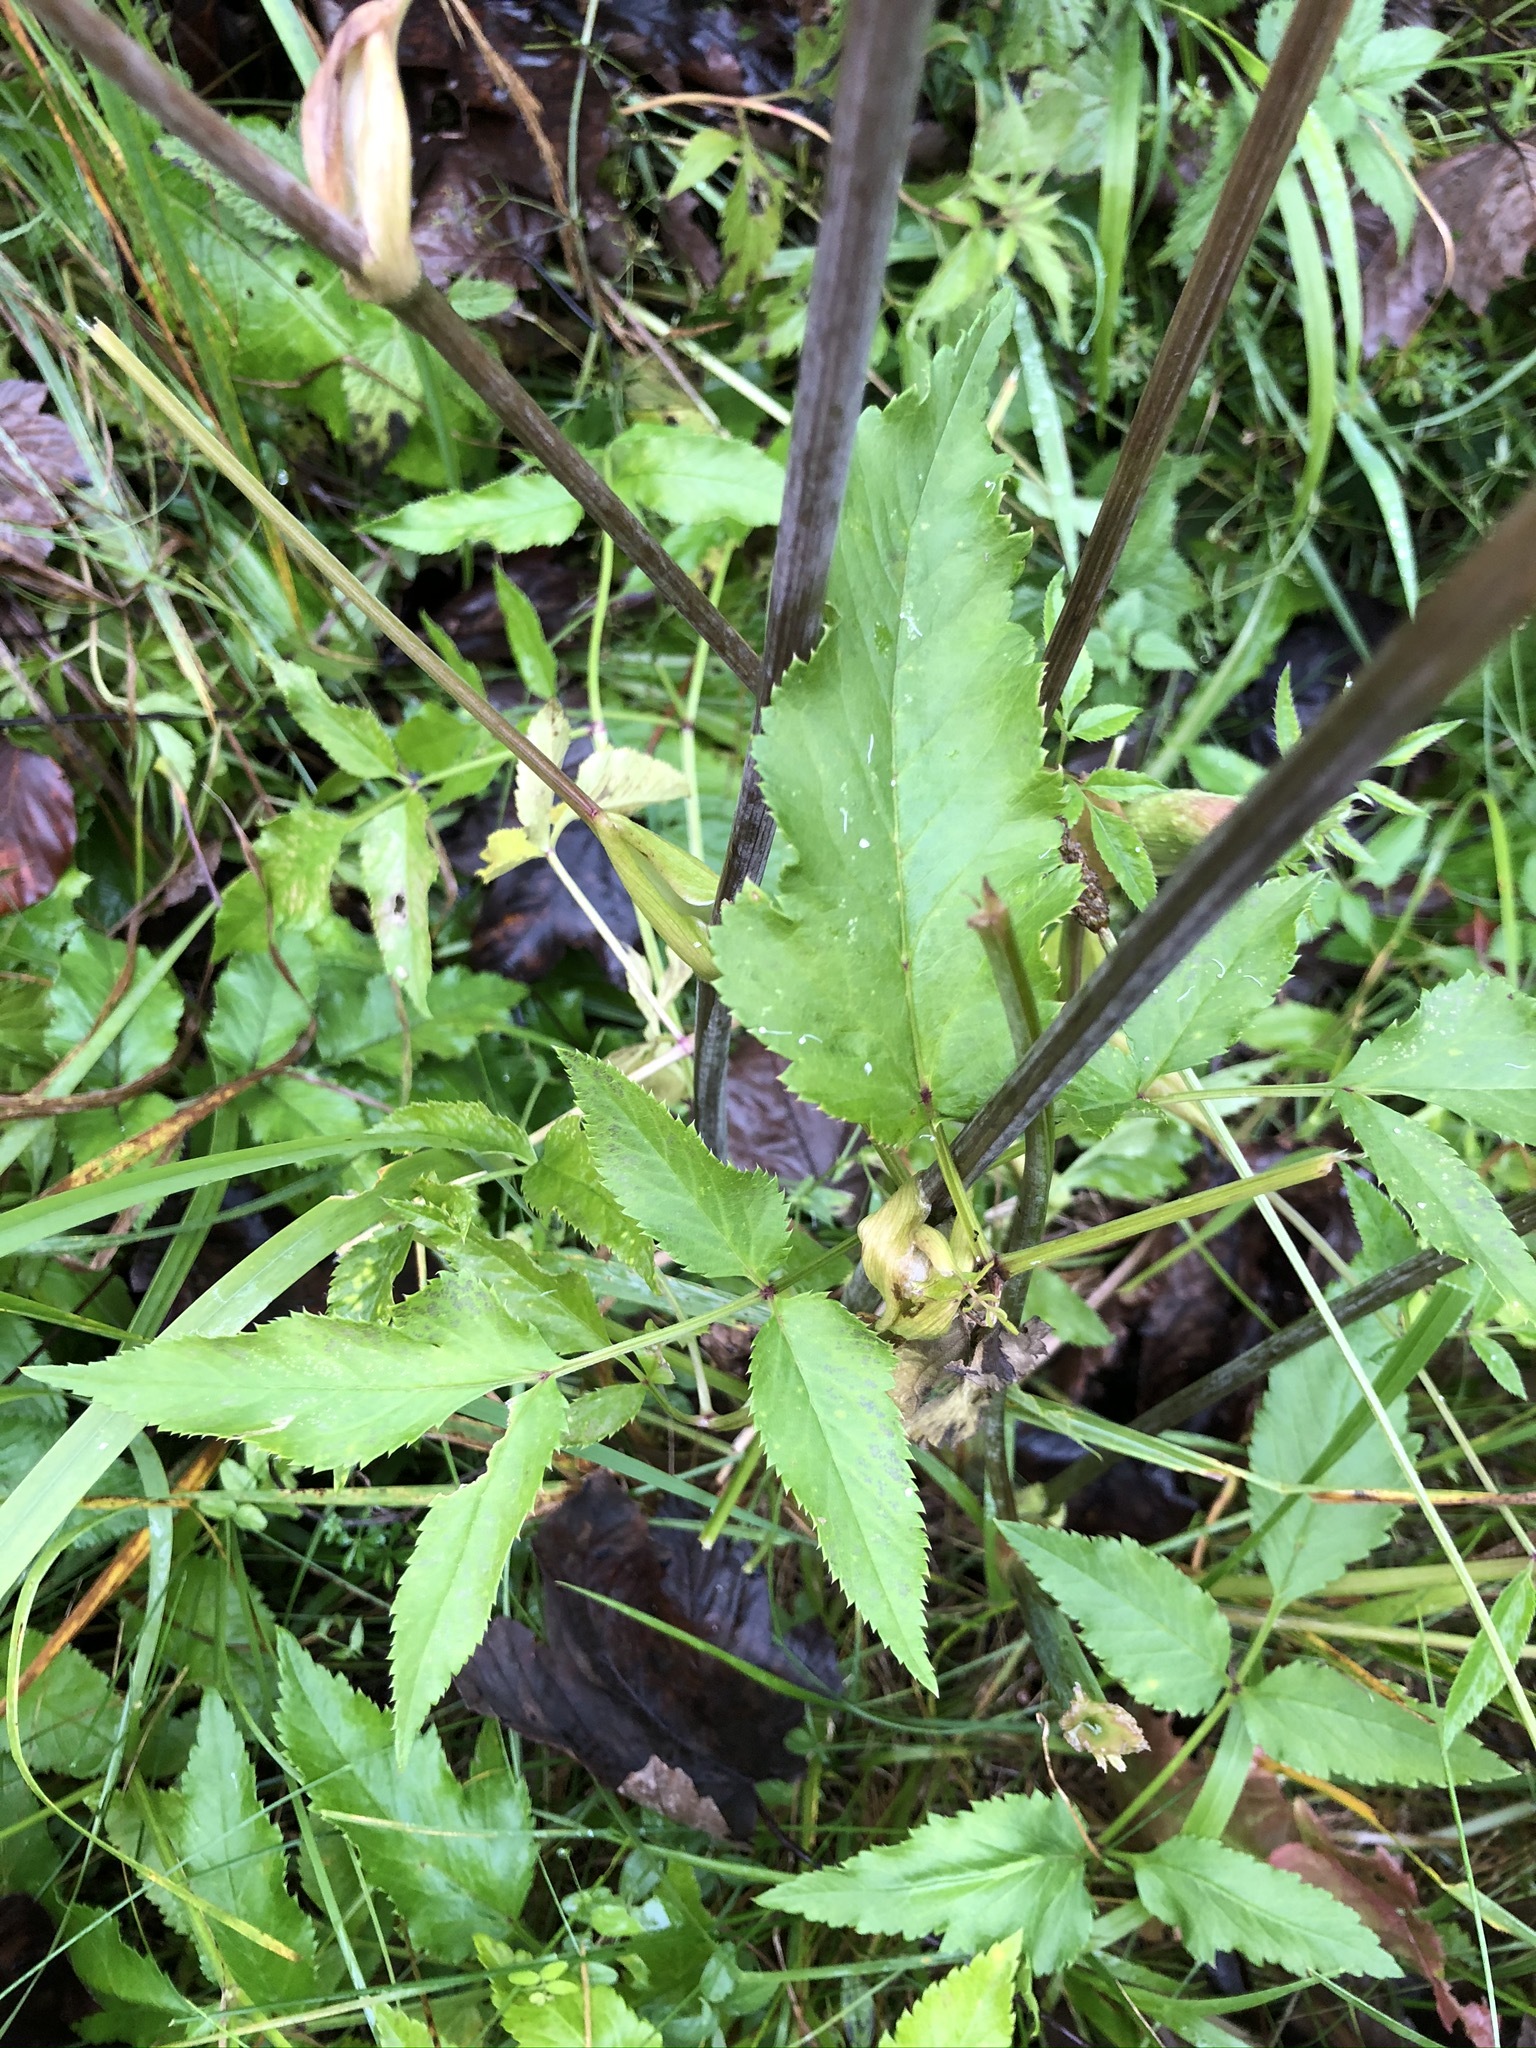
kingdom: Plantae
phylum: Tracheophyta
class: Magnoliopsida
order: Apiales
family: Apiaceae
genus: Angelica
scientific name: Angelica sylvestris
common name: Wild angelica
